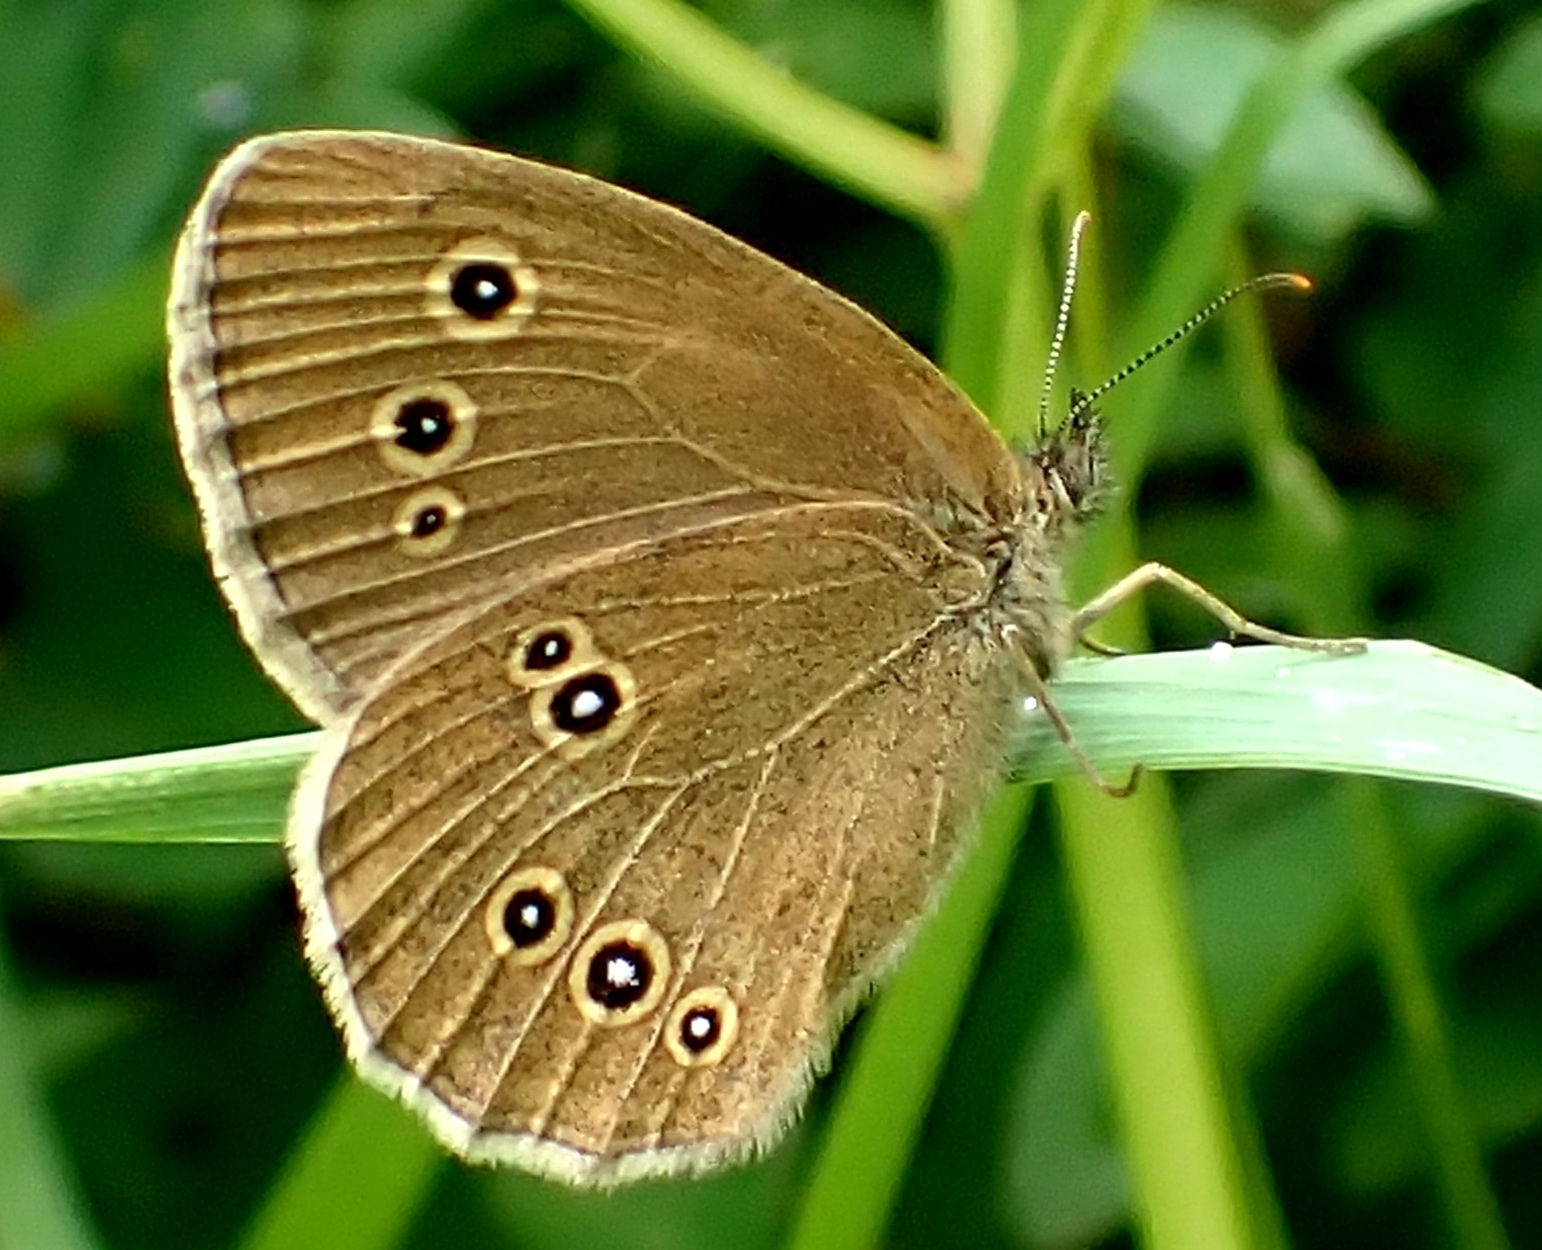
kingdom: Animalia
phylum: Arthropoda
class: Insecta
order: Lepidoptera
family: Nymphalidae
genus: Aphantopus
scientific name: Aphantopus hyperantus
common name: Ringlet
